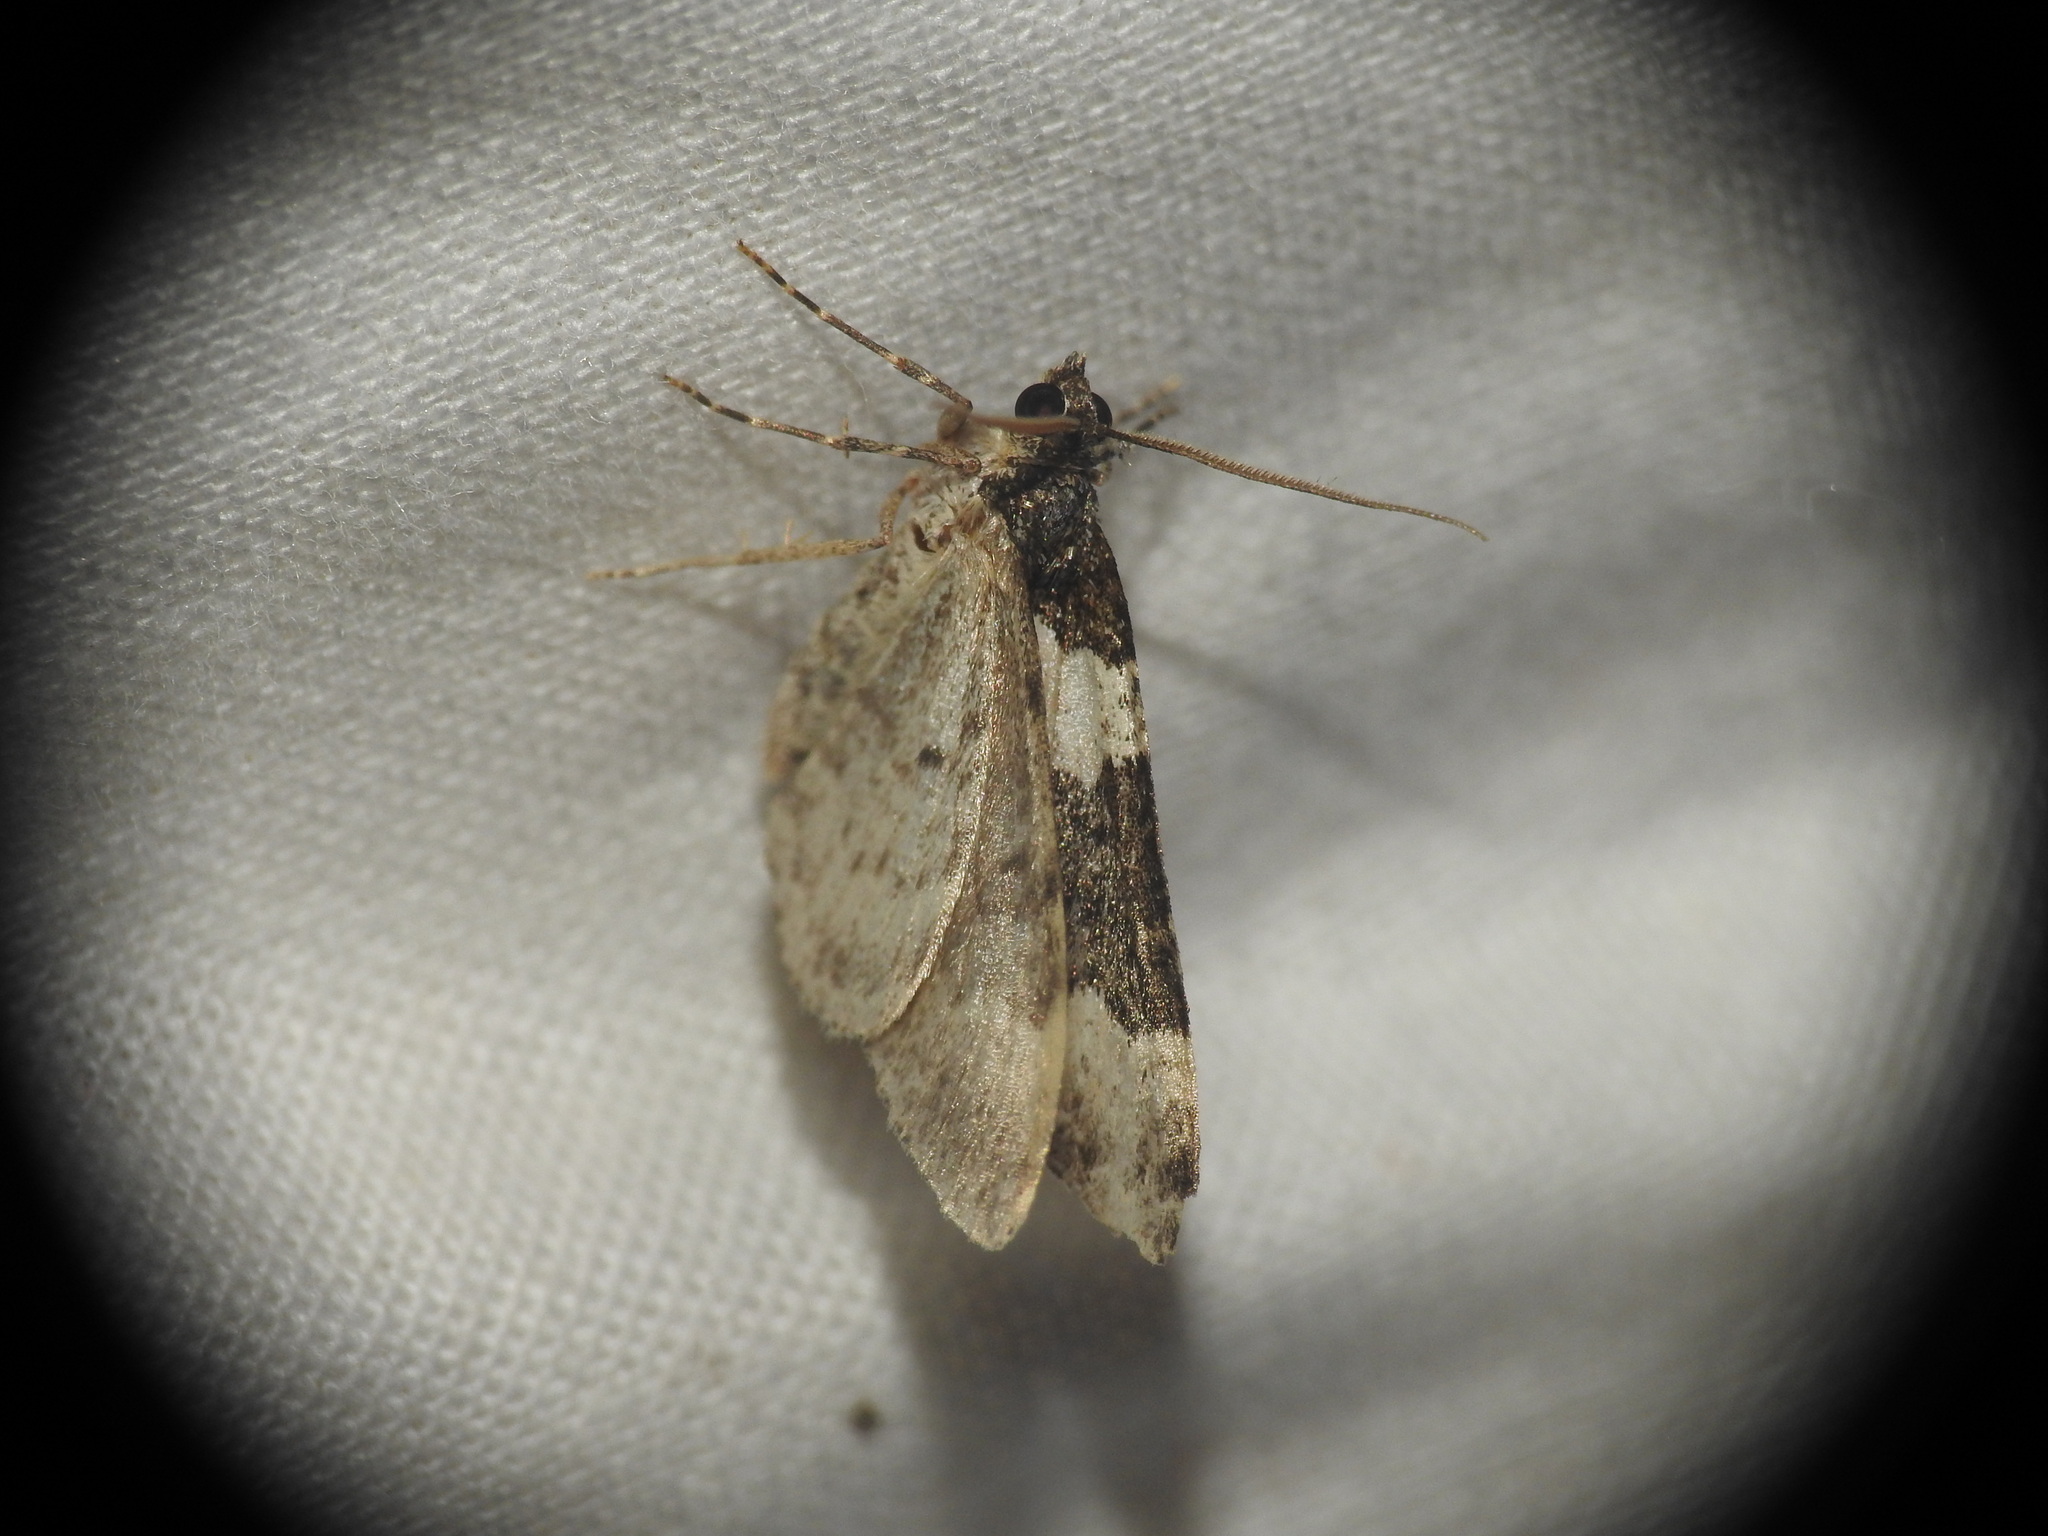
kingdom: Animalia
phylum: Arthropoda
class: Insecta
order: Lepidoptera
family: Geometridae
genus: Xanthorhoe
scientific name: Xanthorhoe fluctuata
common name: Garden carpet
